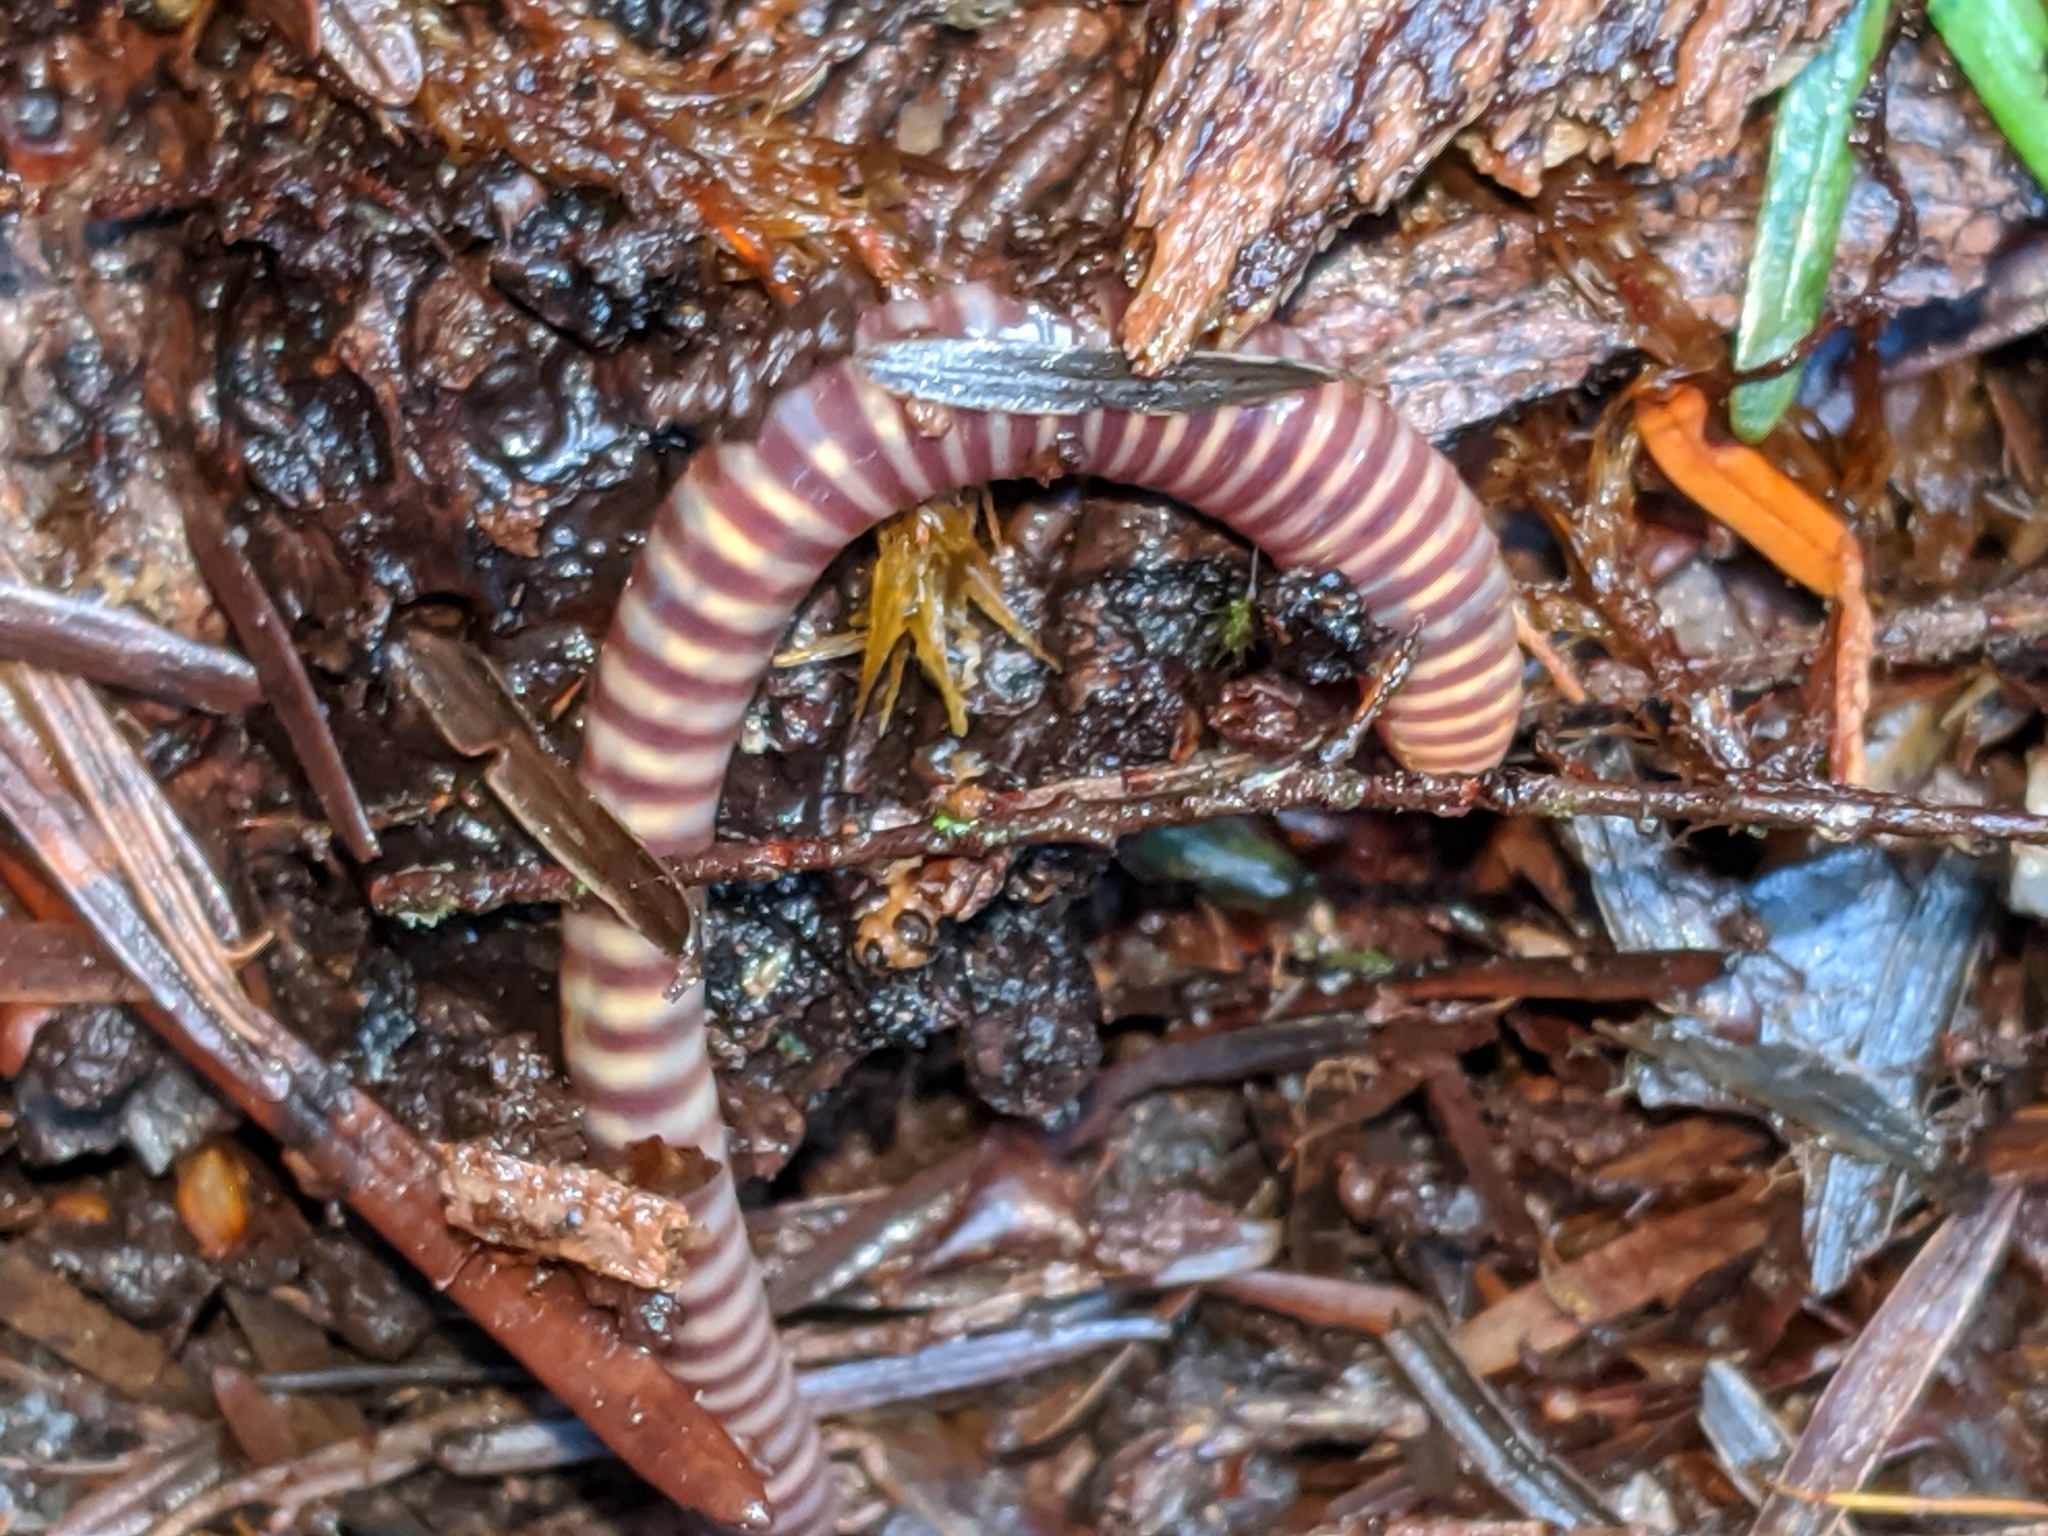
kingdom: Animalia
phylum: Annelida
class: Clitellata
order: Crassiclitellata
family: Lumbricidae
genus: Eisenia
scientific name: Eisenia fetida
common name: Red wiggler
